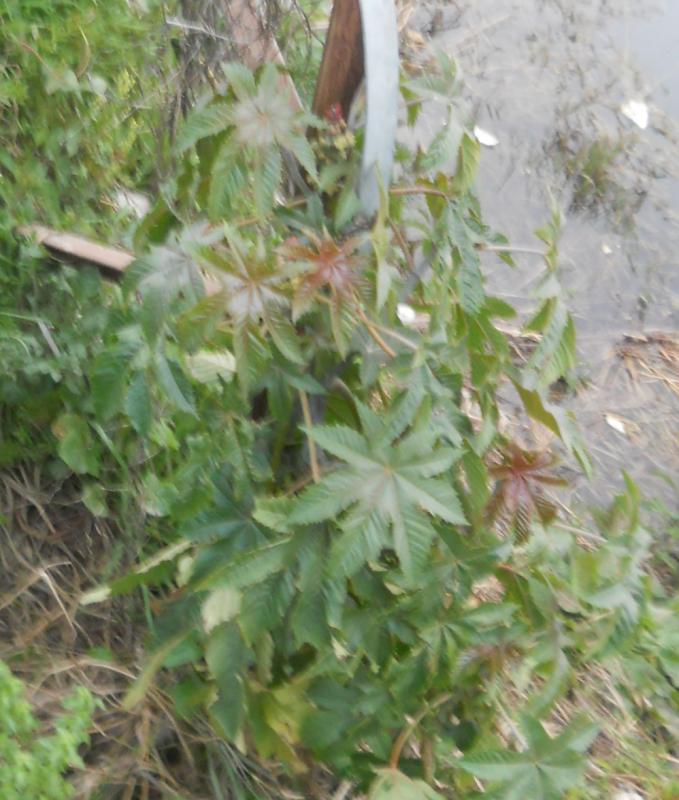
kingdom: Plantae
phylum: Tracheophyta
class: Magnoliopsida
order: Malpighiales
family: Euphorbiaceae
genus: Ricinus
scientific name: Ricinus communis
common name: Castor-oil-plant
